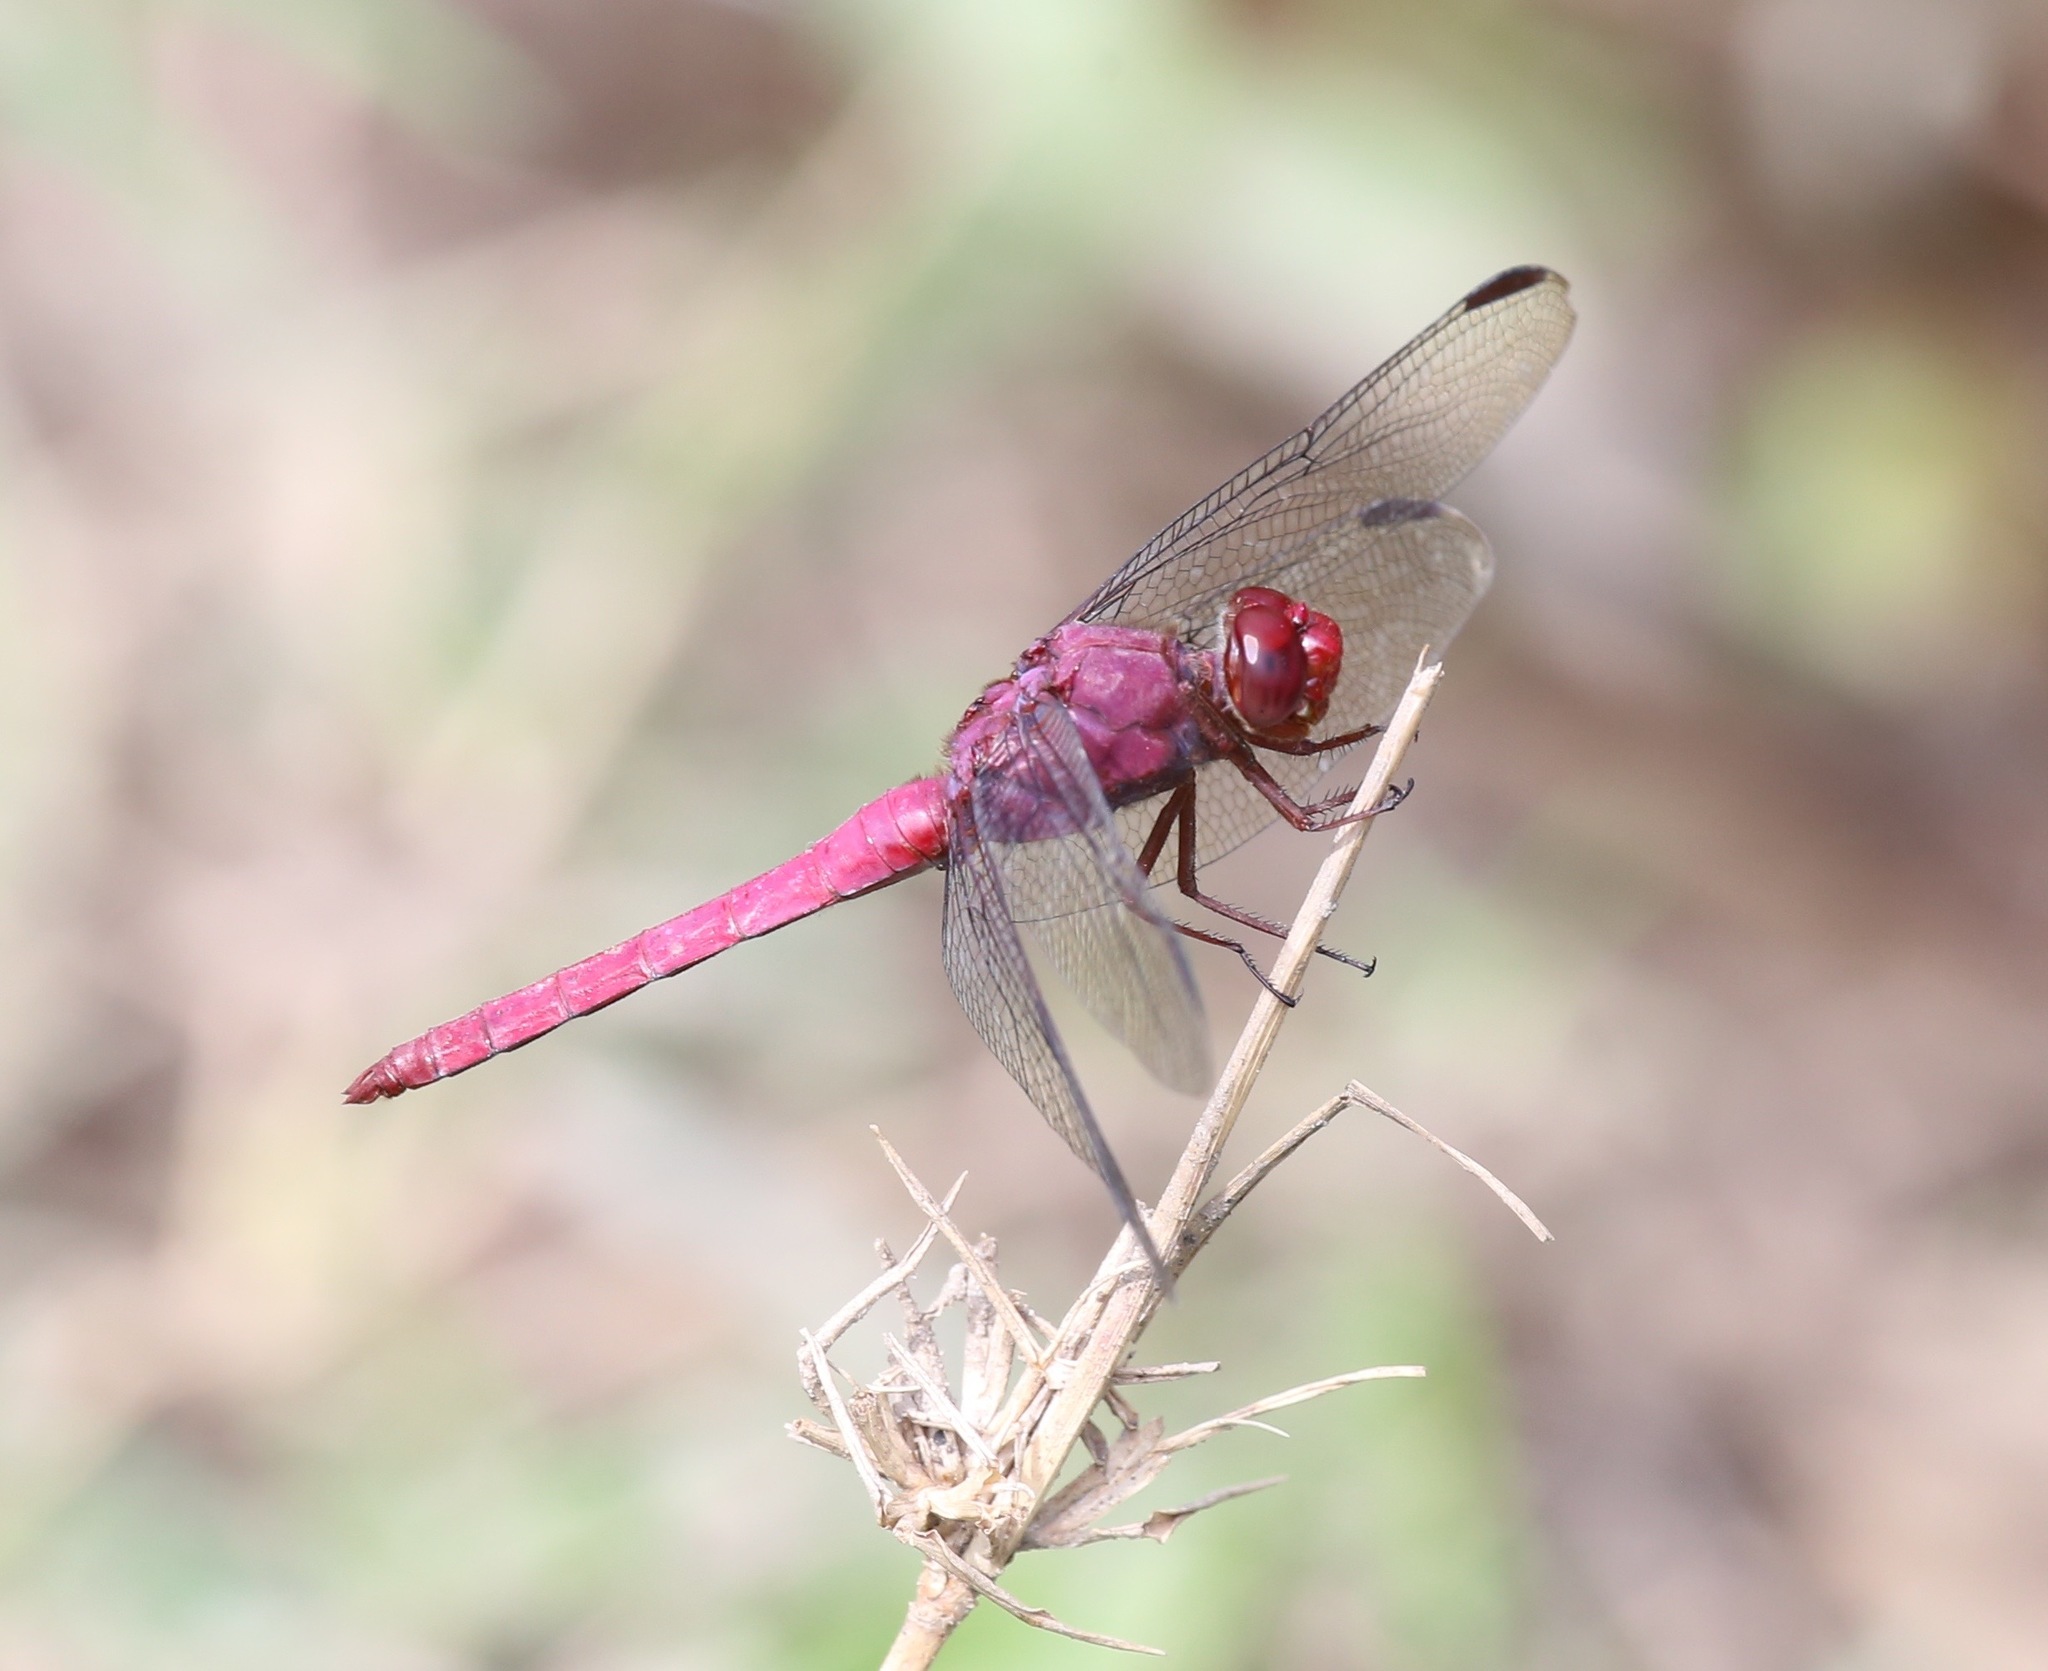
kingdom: Animalia
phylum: Arthropoda
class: Insecta
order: Odonata
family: Libellulidae
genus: Orthemis
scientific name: Orthemis discolor
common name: Carmine skimmer
